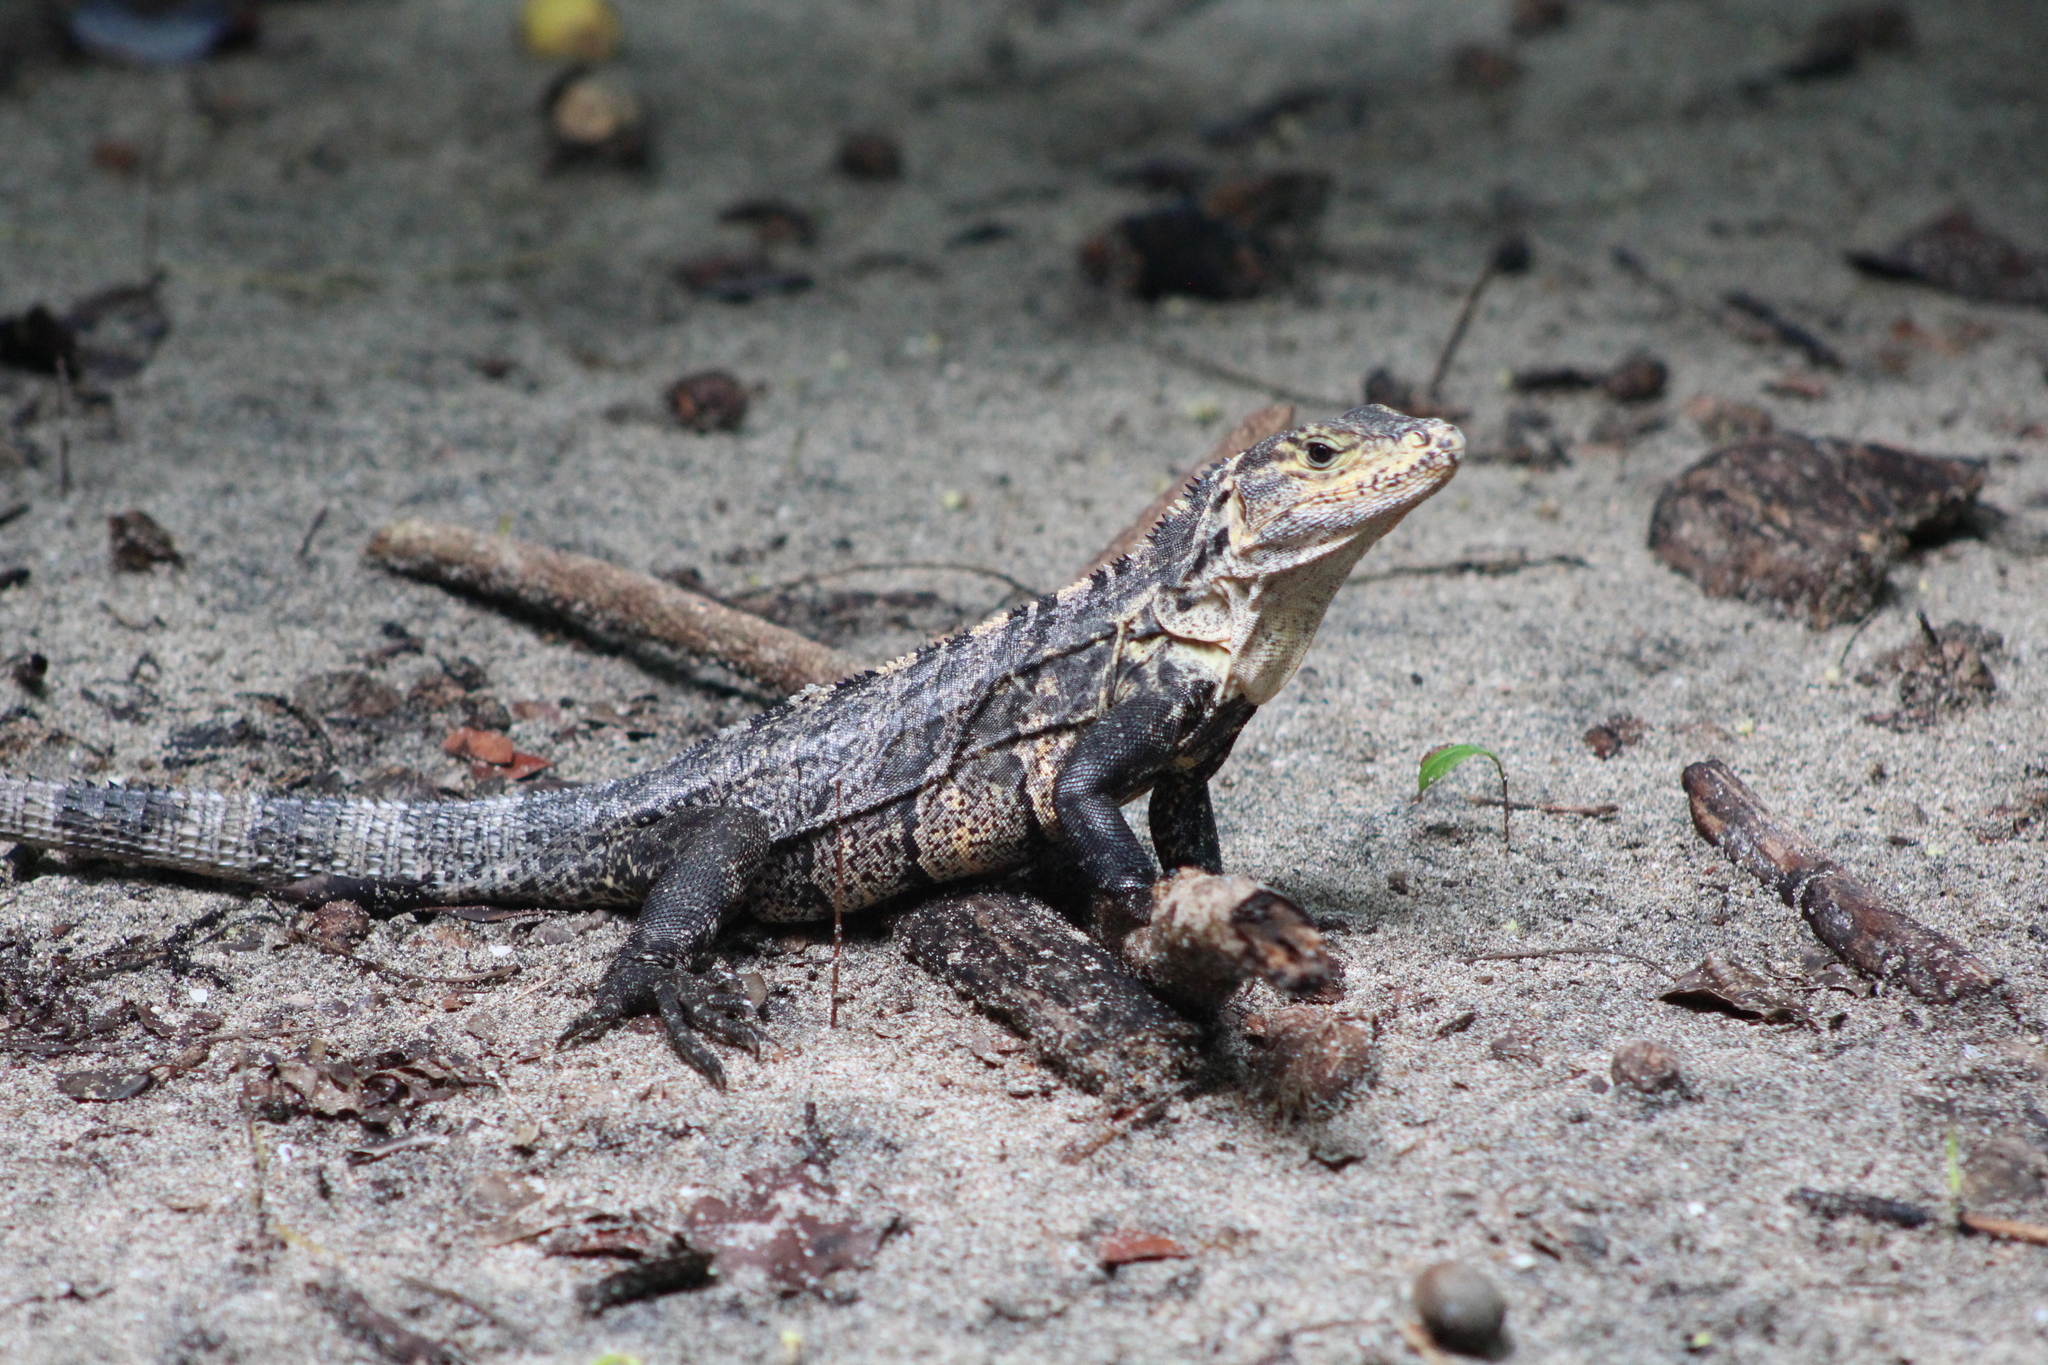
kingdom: Animalia
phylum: Chordata
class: Squamata
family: Iguanidae
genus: Ctenosaura
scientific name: Ctenosaura similis
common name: Black spiny-tailed iguana
